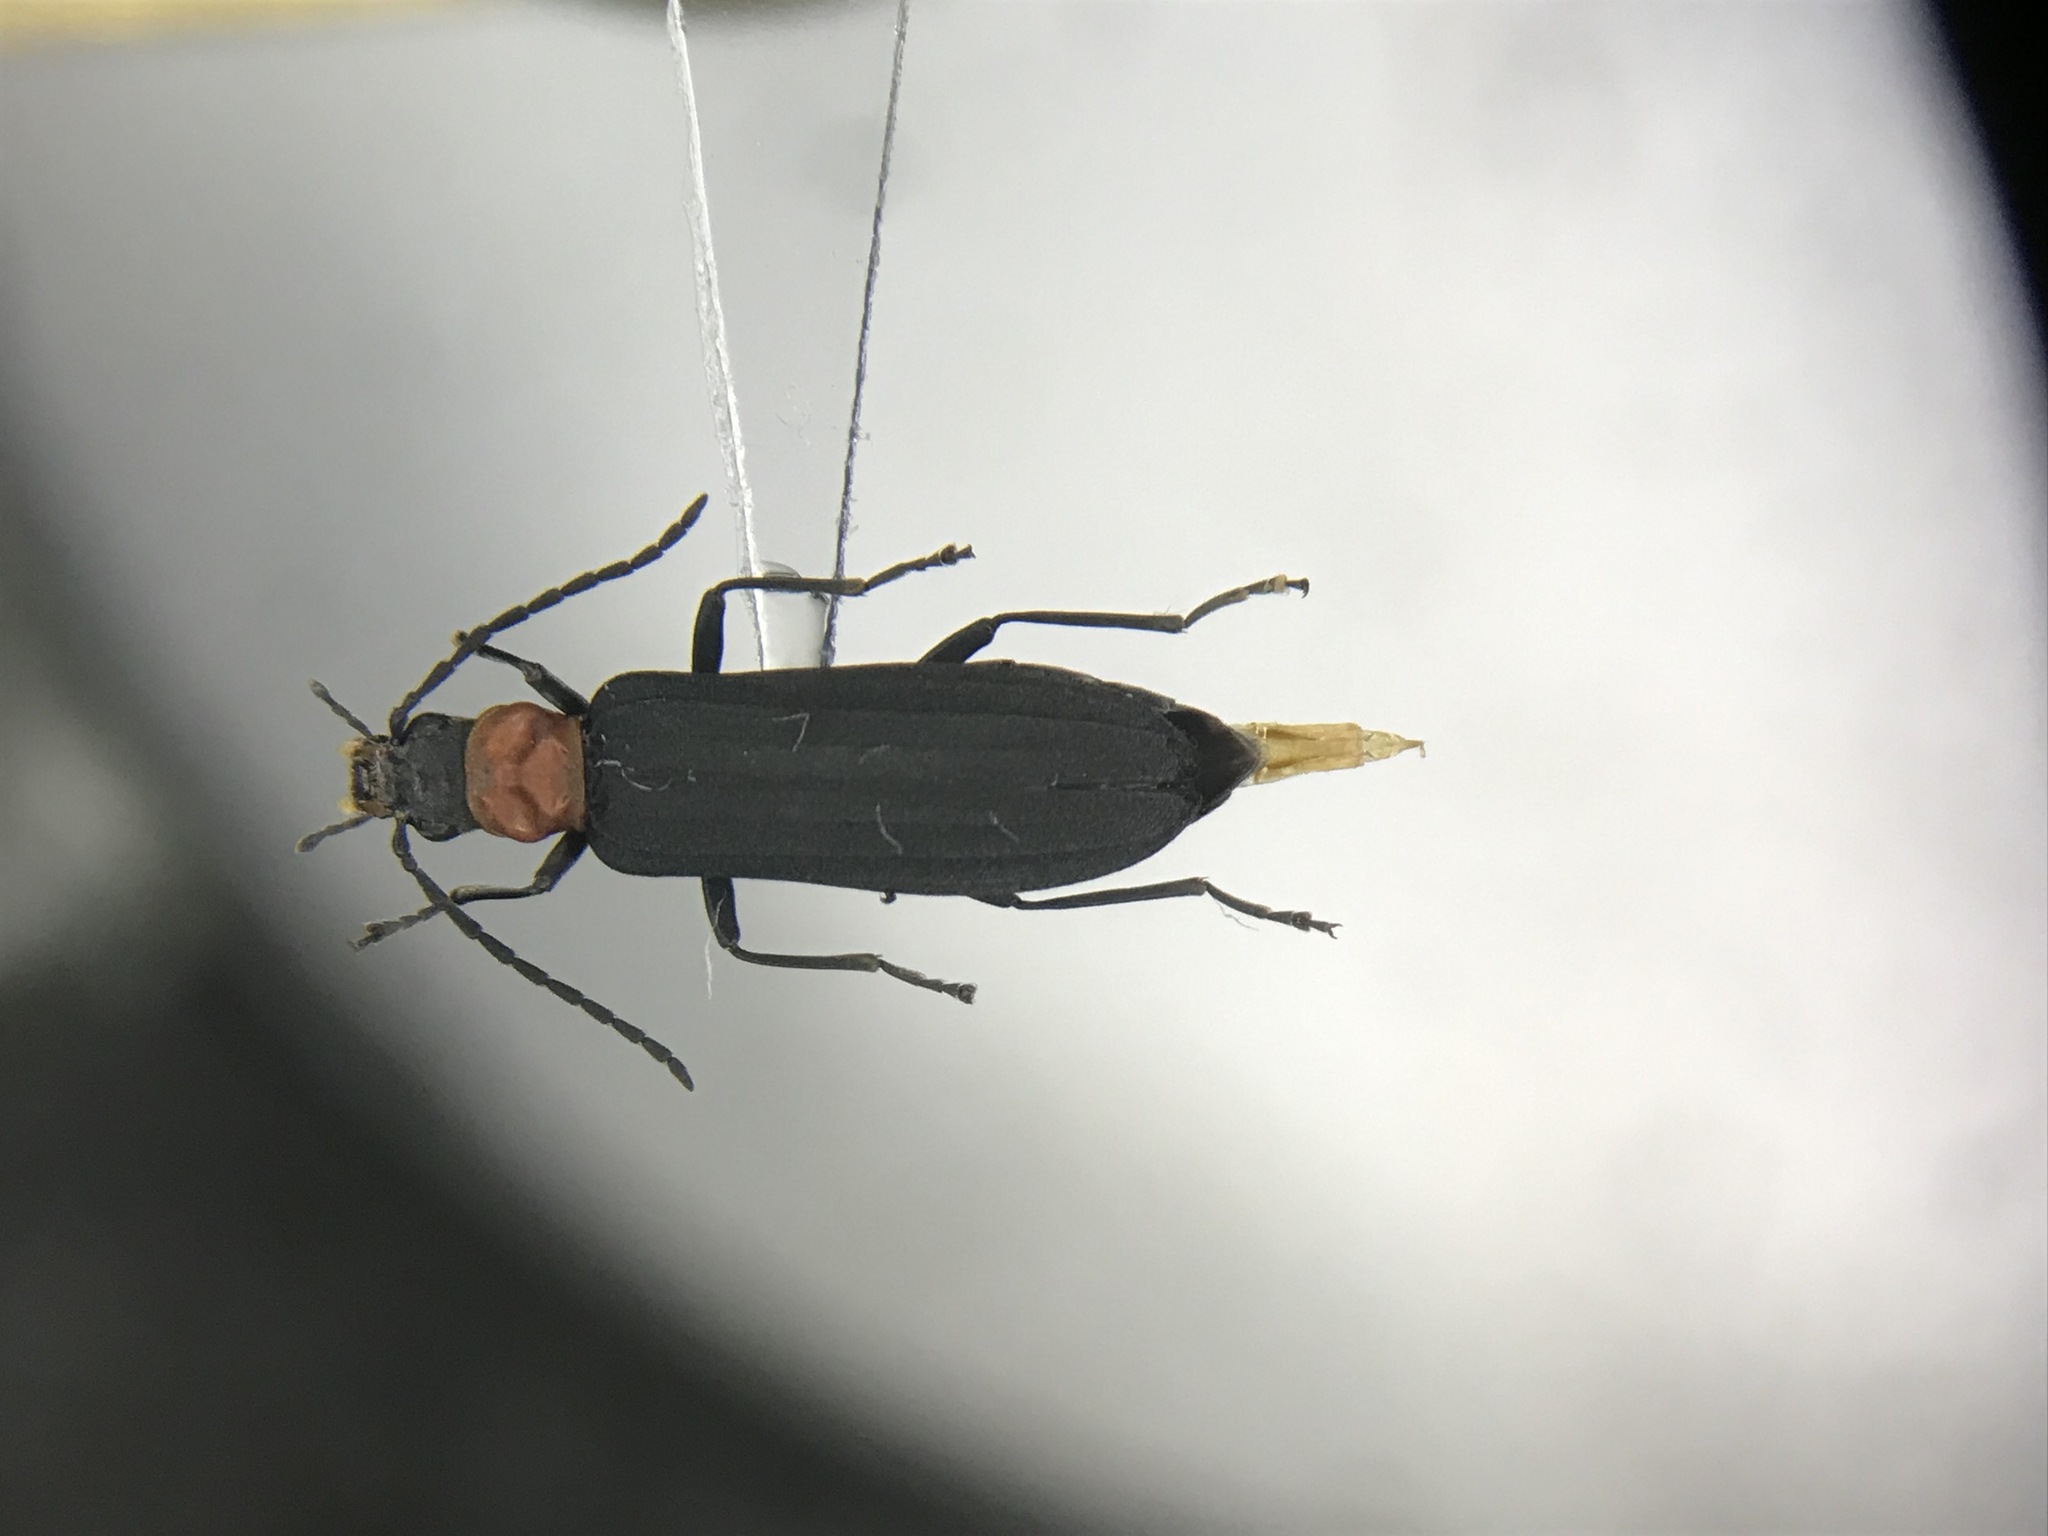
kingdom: Animalia
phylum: Arthropoda
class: Insecta
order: Coleoptera
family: Oedemeridae
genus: Ischnomera
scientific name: Ischnomera
